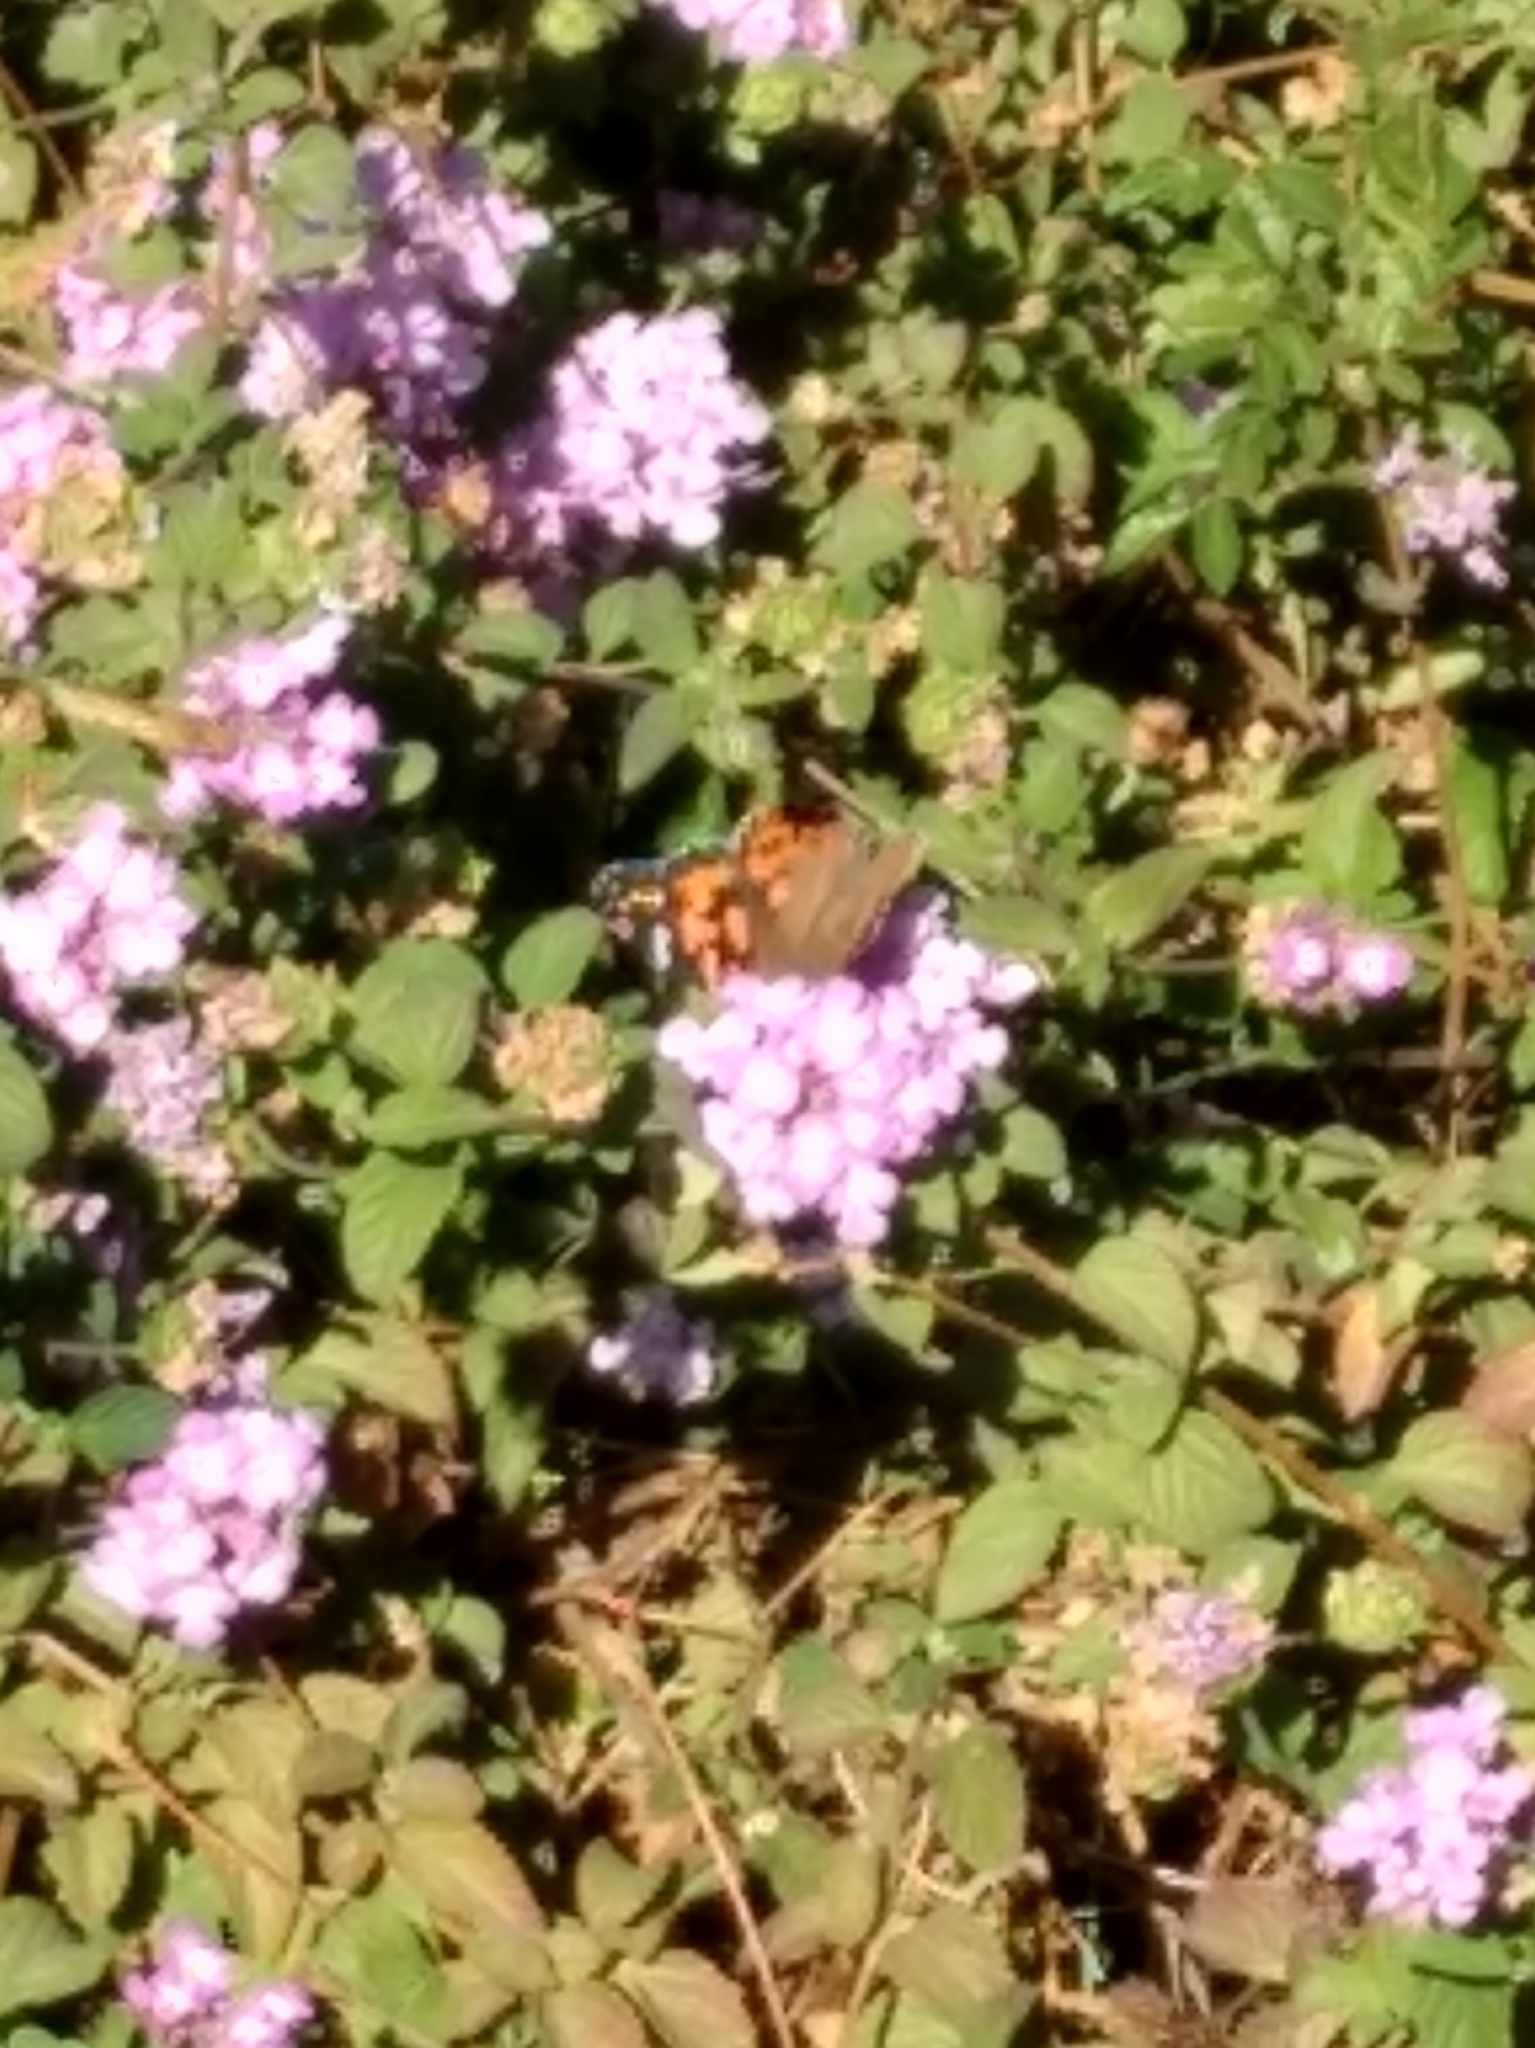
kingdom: Animalia
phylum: Arthropoda
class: Insecta
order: Lepidoptera
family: Nymphalidae
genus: Vanessa
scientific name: Vanessa cardui
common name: Painted lady
